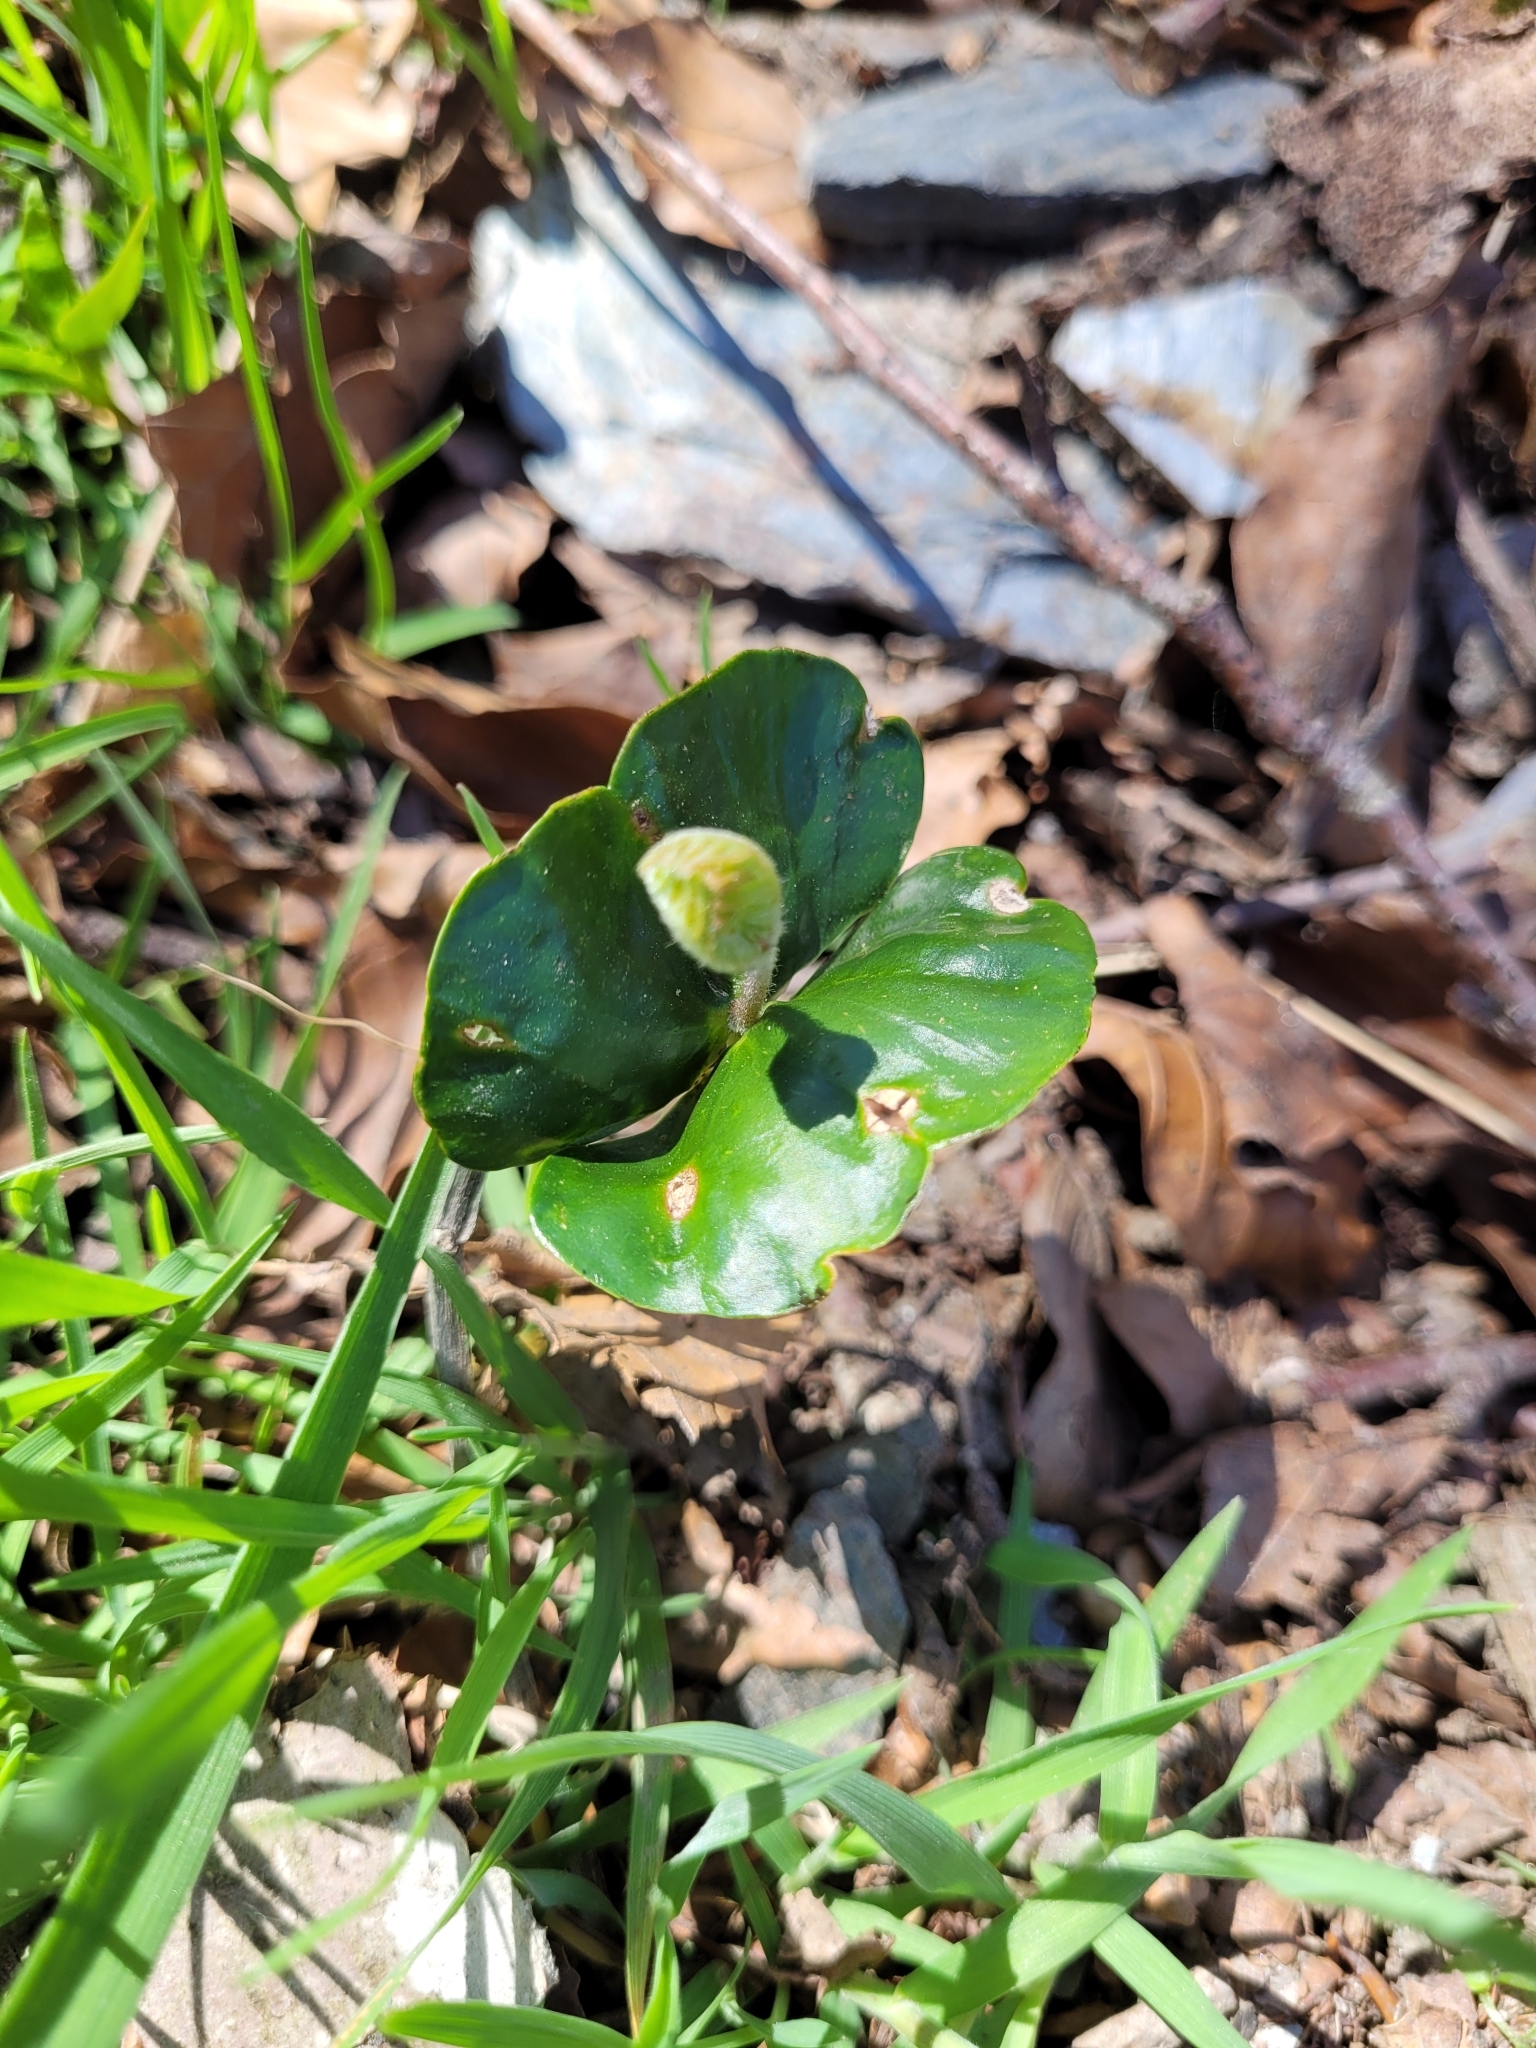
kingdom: Plantae
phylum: Tracheophyta
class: Magnoliopsida
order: Fagales
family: Fagaceae
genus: Fagus
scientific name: Fagus sylvatica
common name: Beech
